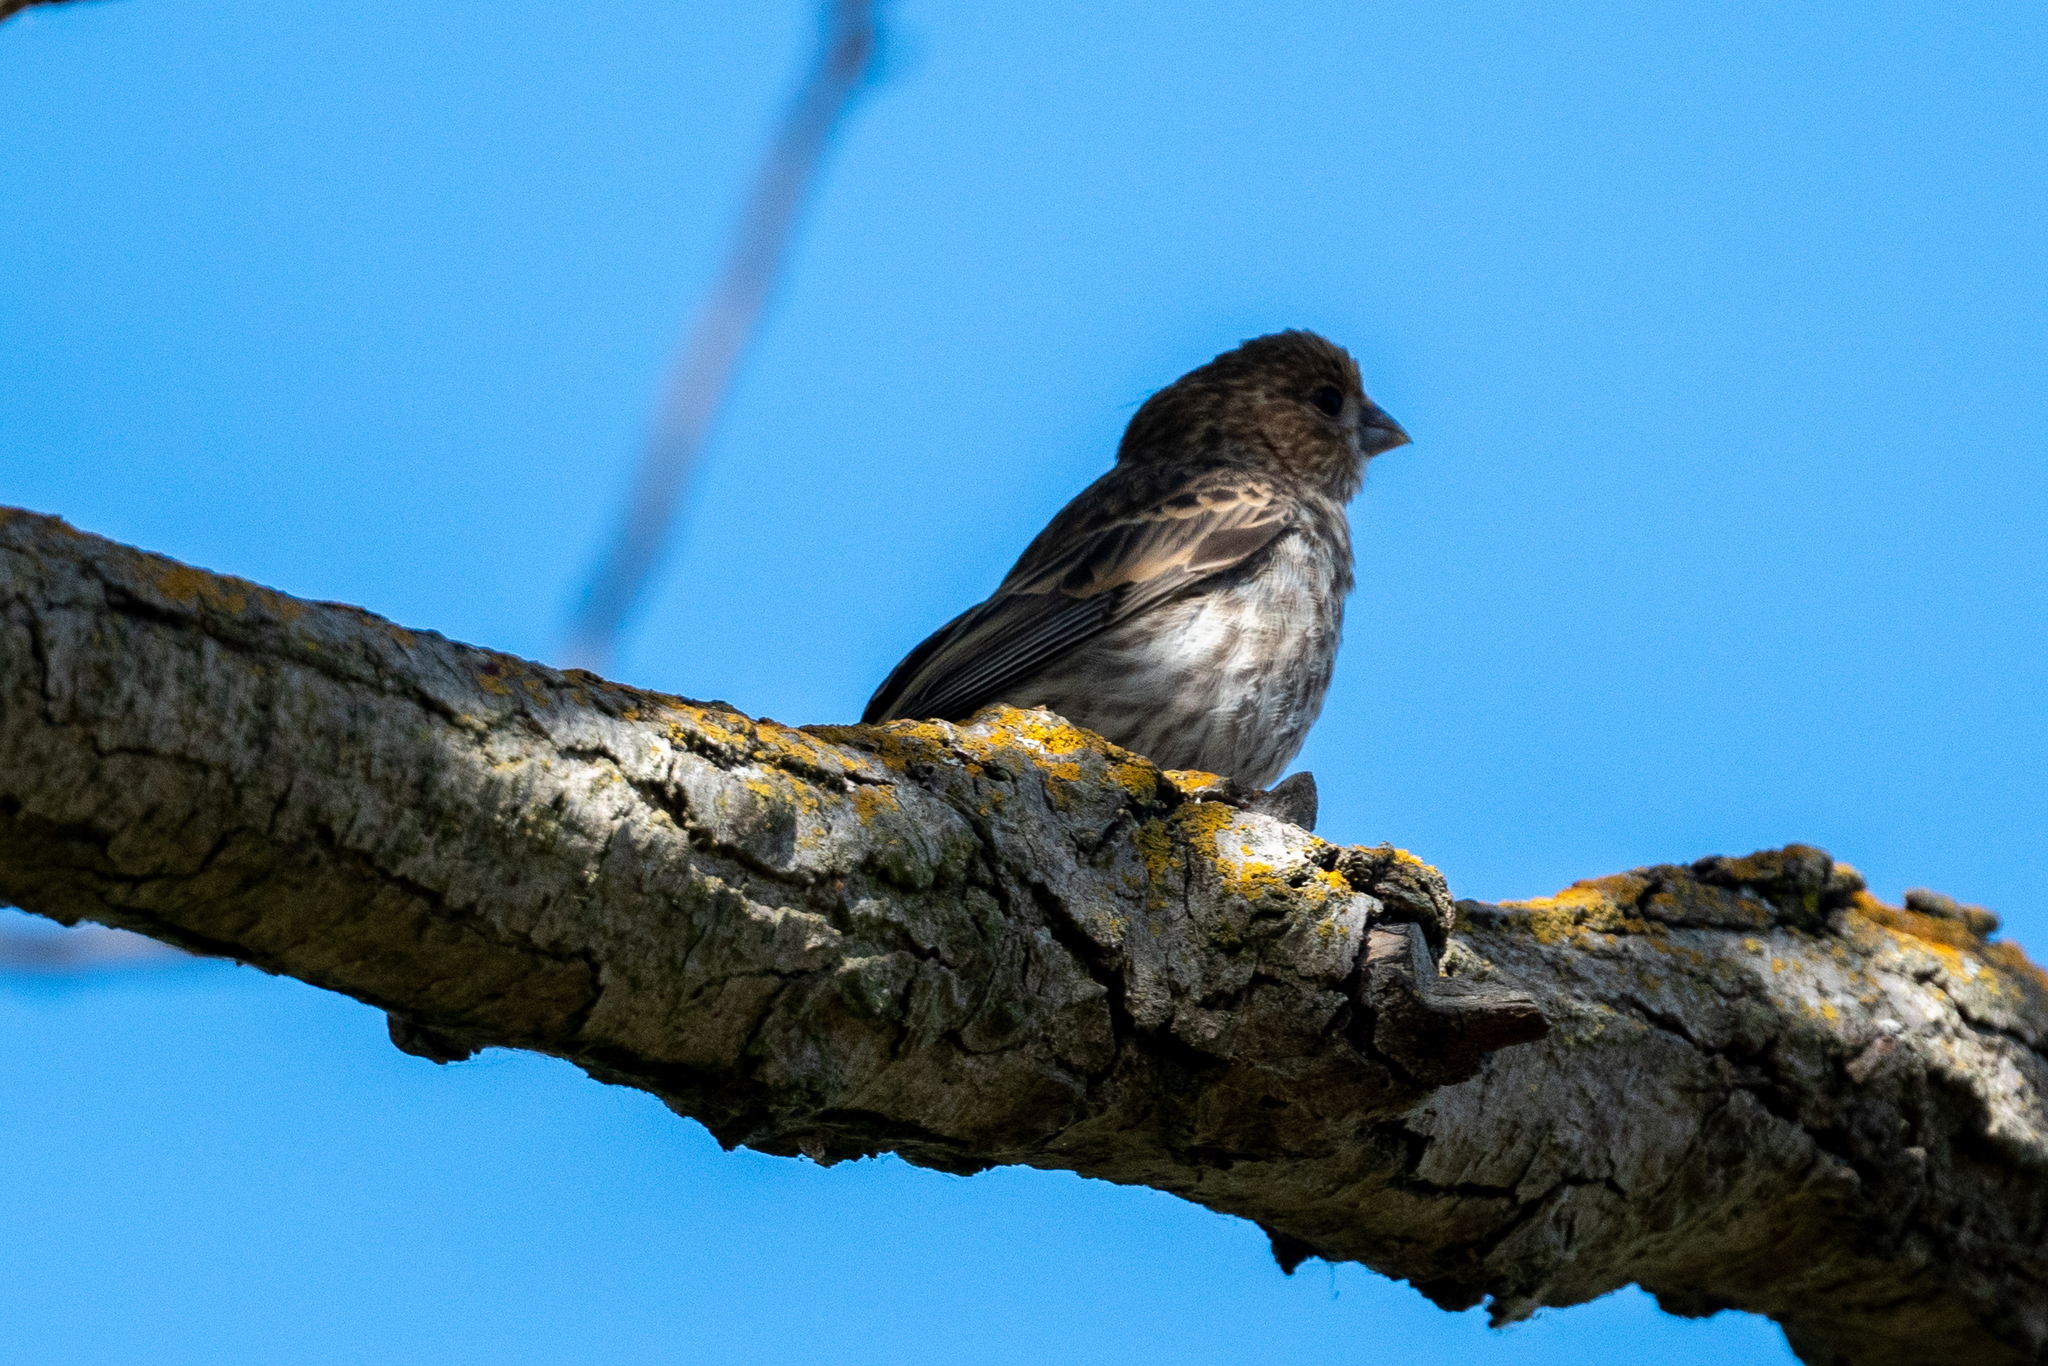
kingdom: Animalia
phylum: Chordata
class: Aves
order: Passeriformes
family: Fringillidae
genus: Haemorhous
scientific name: Haemorhous mexicanus
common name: House finch
